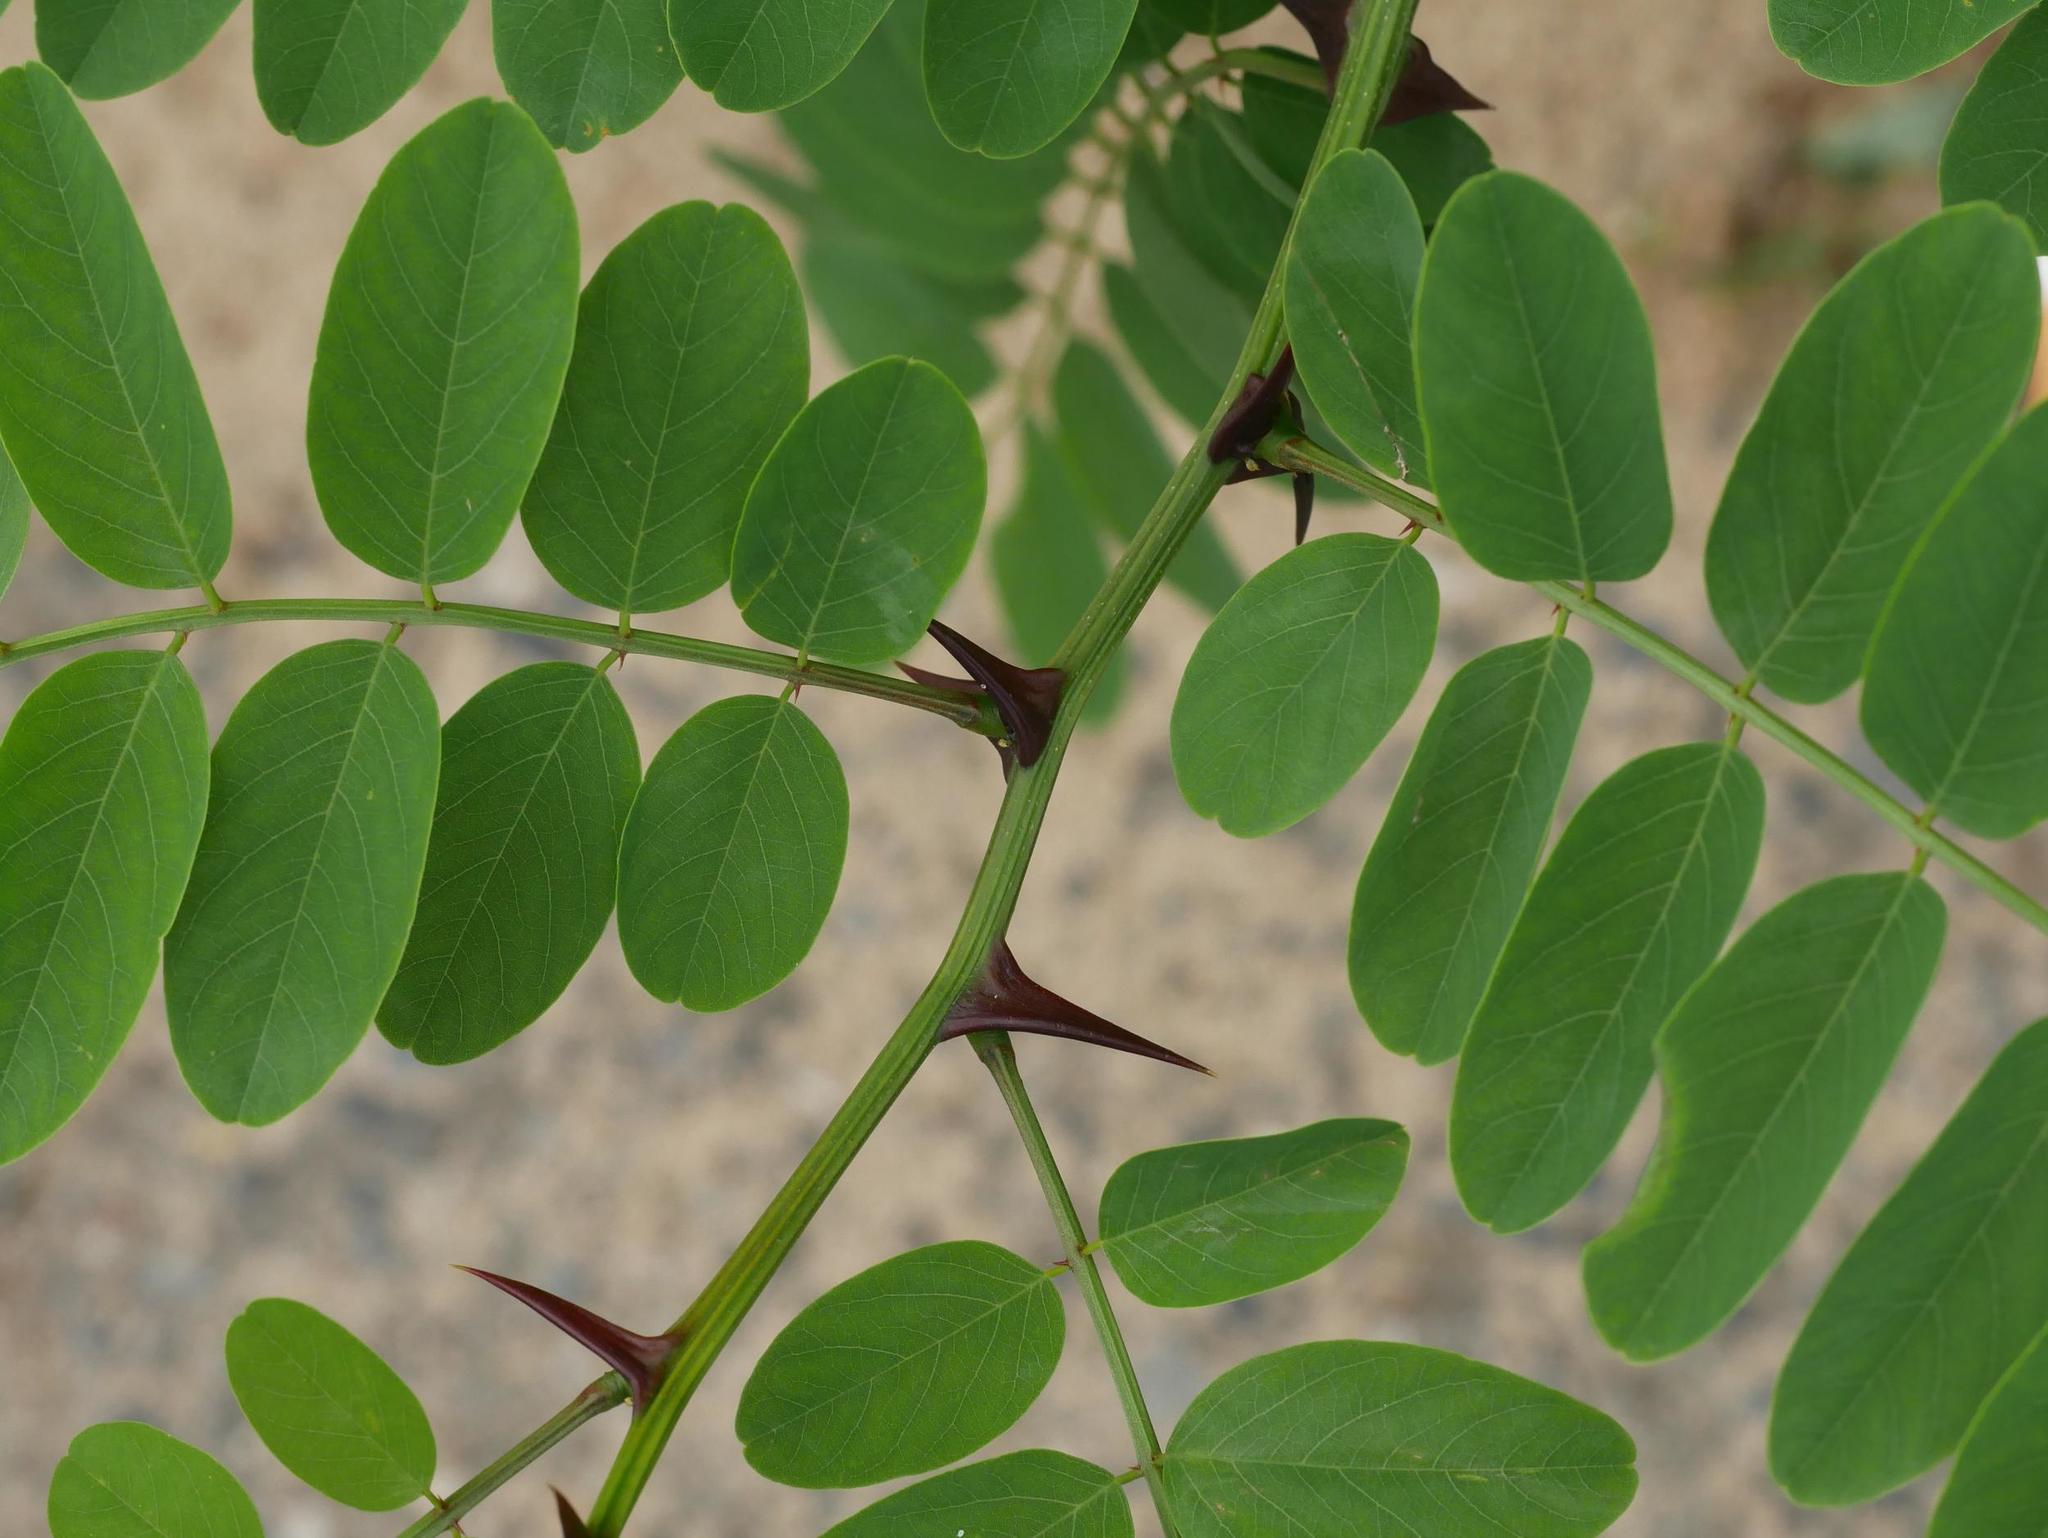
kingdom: Plantae
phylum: Tracheophyta
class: Magnoliopsida
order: Fabales
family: Fabaceae
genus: Robinia
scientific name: Robinia pseudoacacia
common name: Black locust
